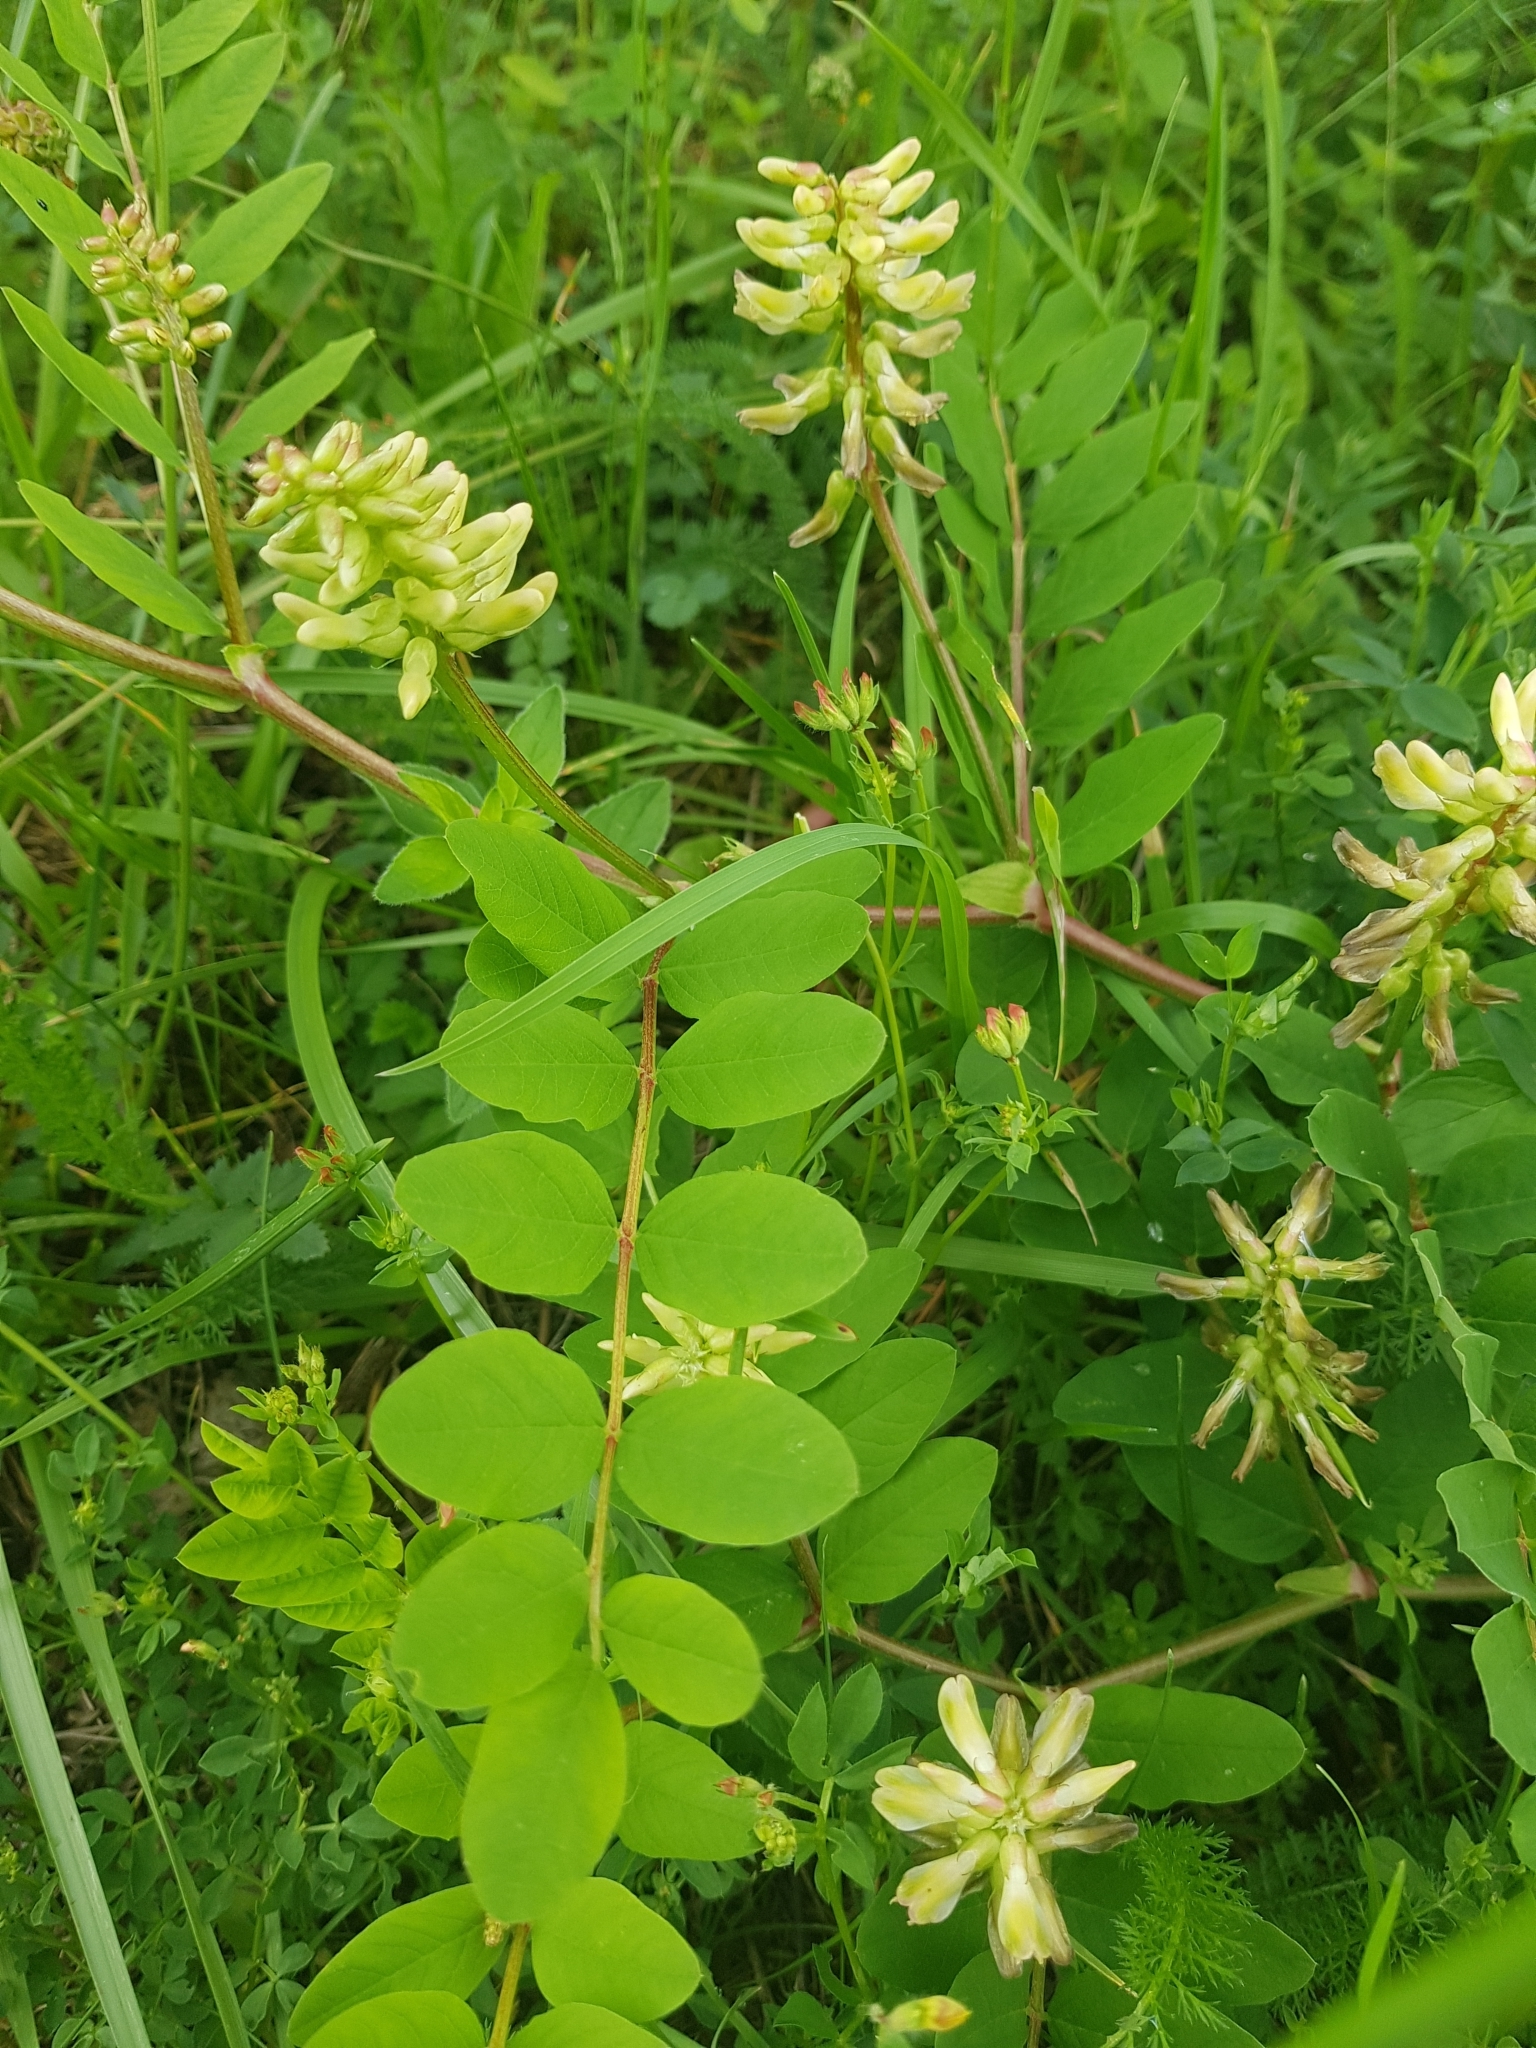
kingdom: Plantae
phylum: Tracheophyta
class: Magnoliopsida
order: Fabales
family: Fabaceae
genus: Astragalus
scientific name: Astragalus glycyphyllos
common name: Wild liquorice
